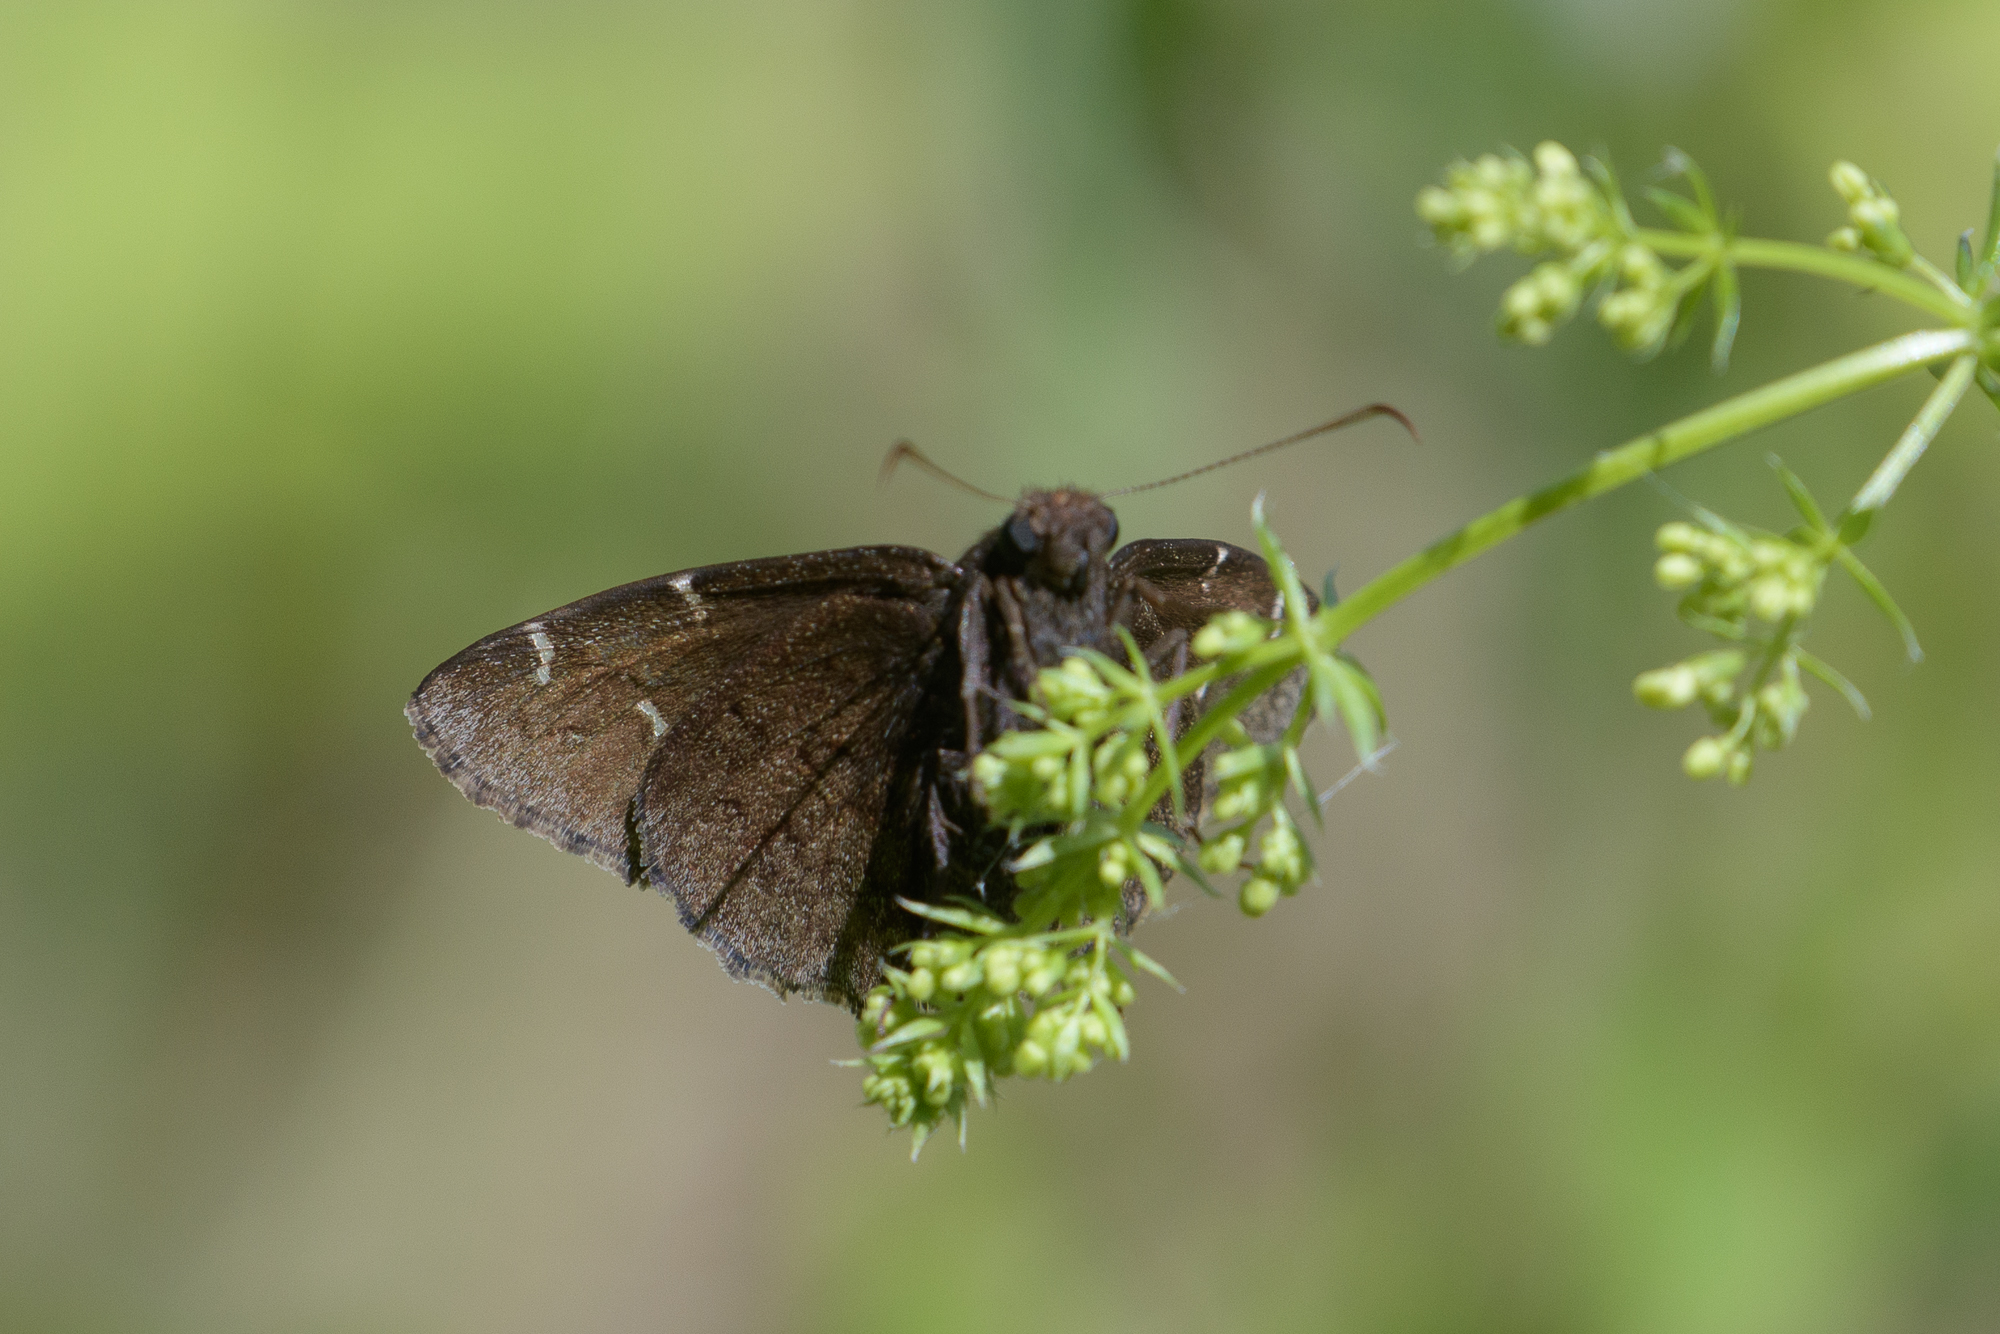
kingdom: Animalia
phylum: Arthropoda
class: Insecta
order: Lepidoptera
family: Hesperiidae
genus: Thorybes
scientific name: Thorybes pylades
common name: Northern cloudywing
